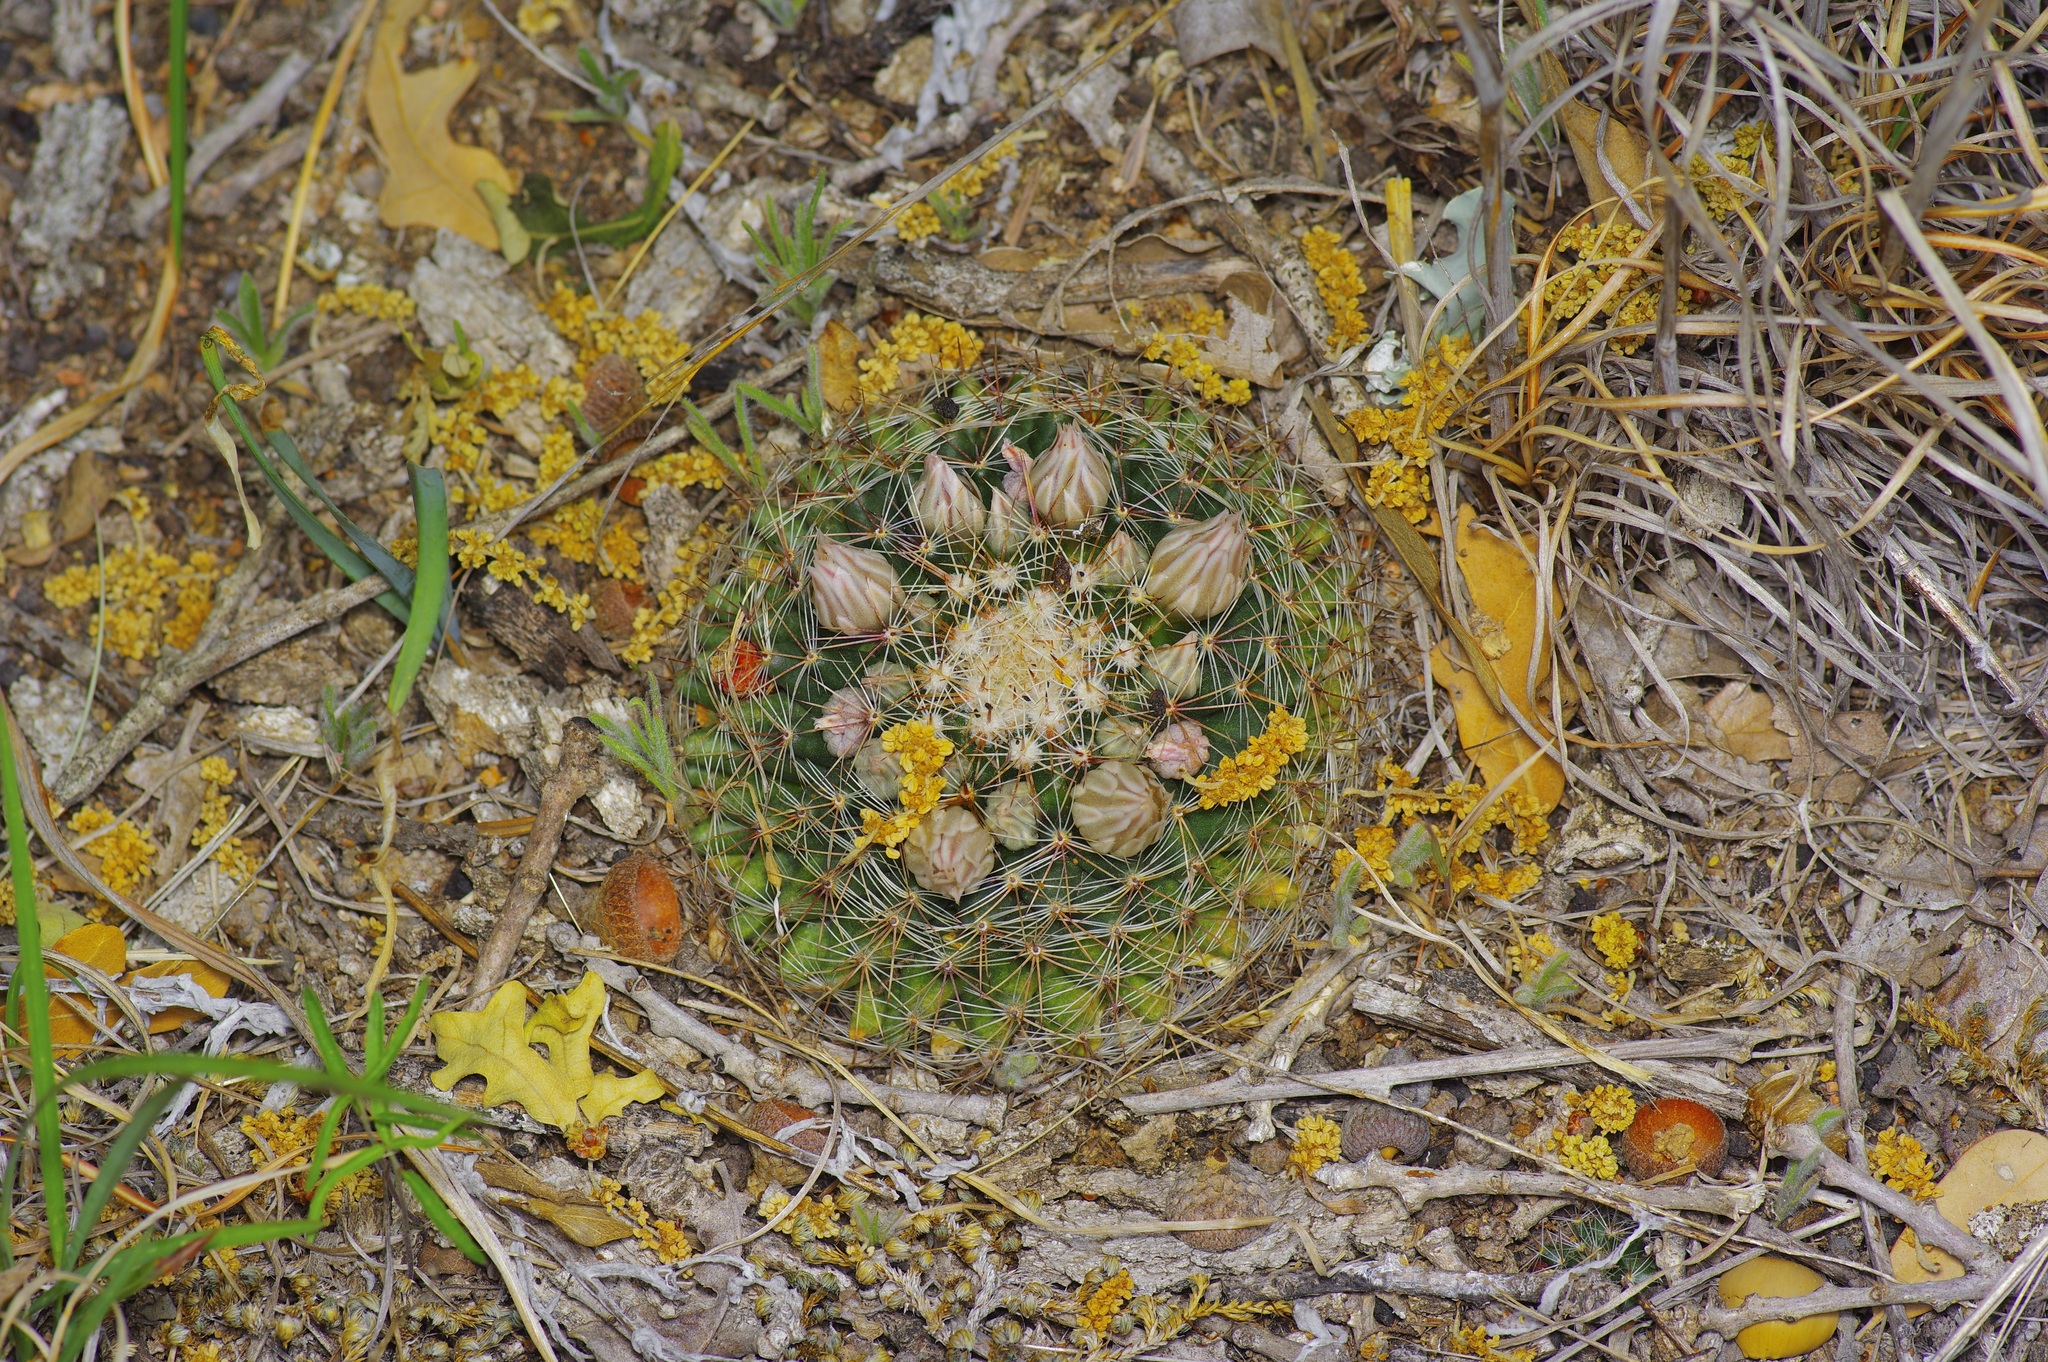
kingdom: Plantae
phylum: Tracheophyta
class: Magnoliopsida
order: Caryophyllales
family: Cactaceae
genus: Mammillaria
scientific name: Mammillaria heyderi
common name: Little nipple cactus
